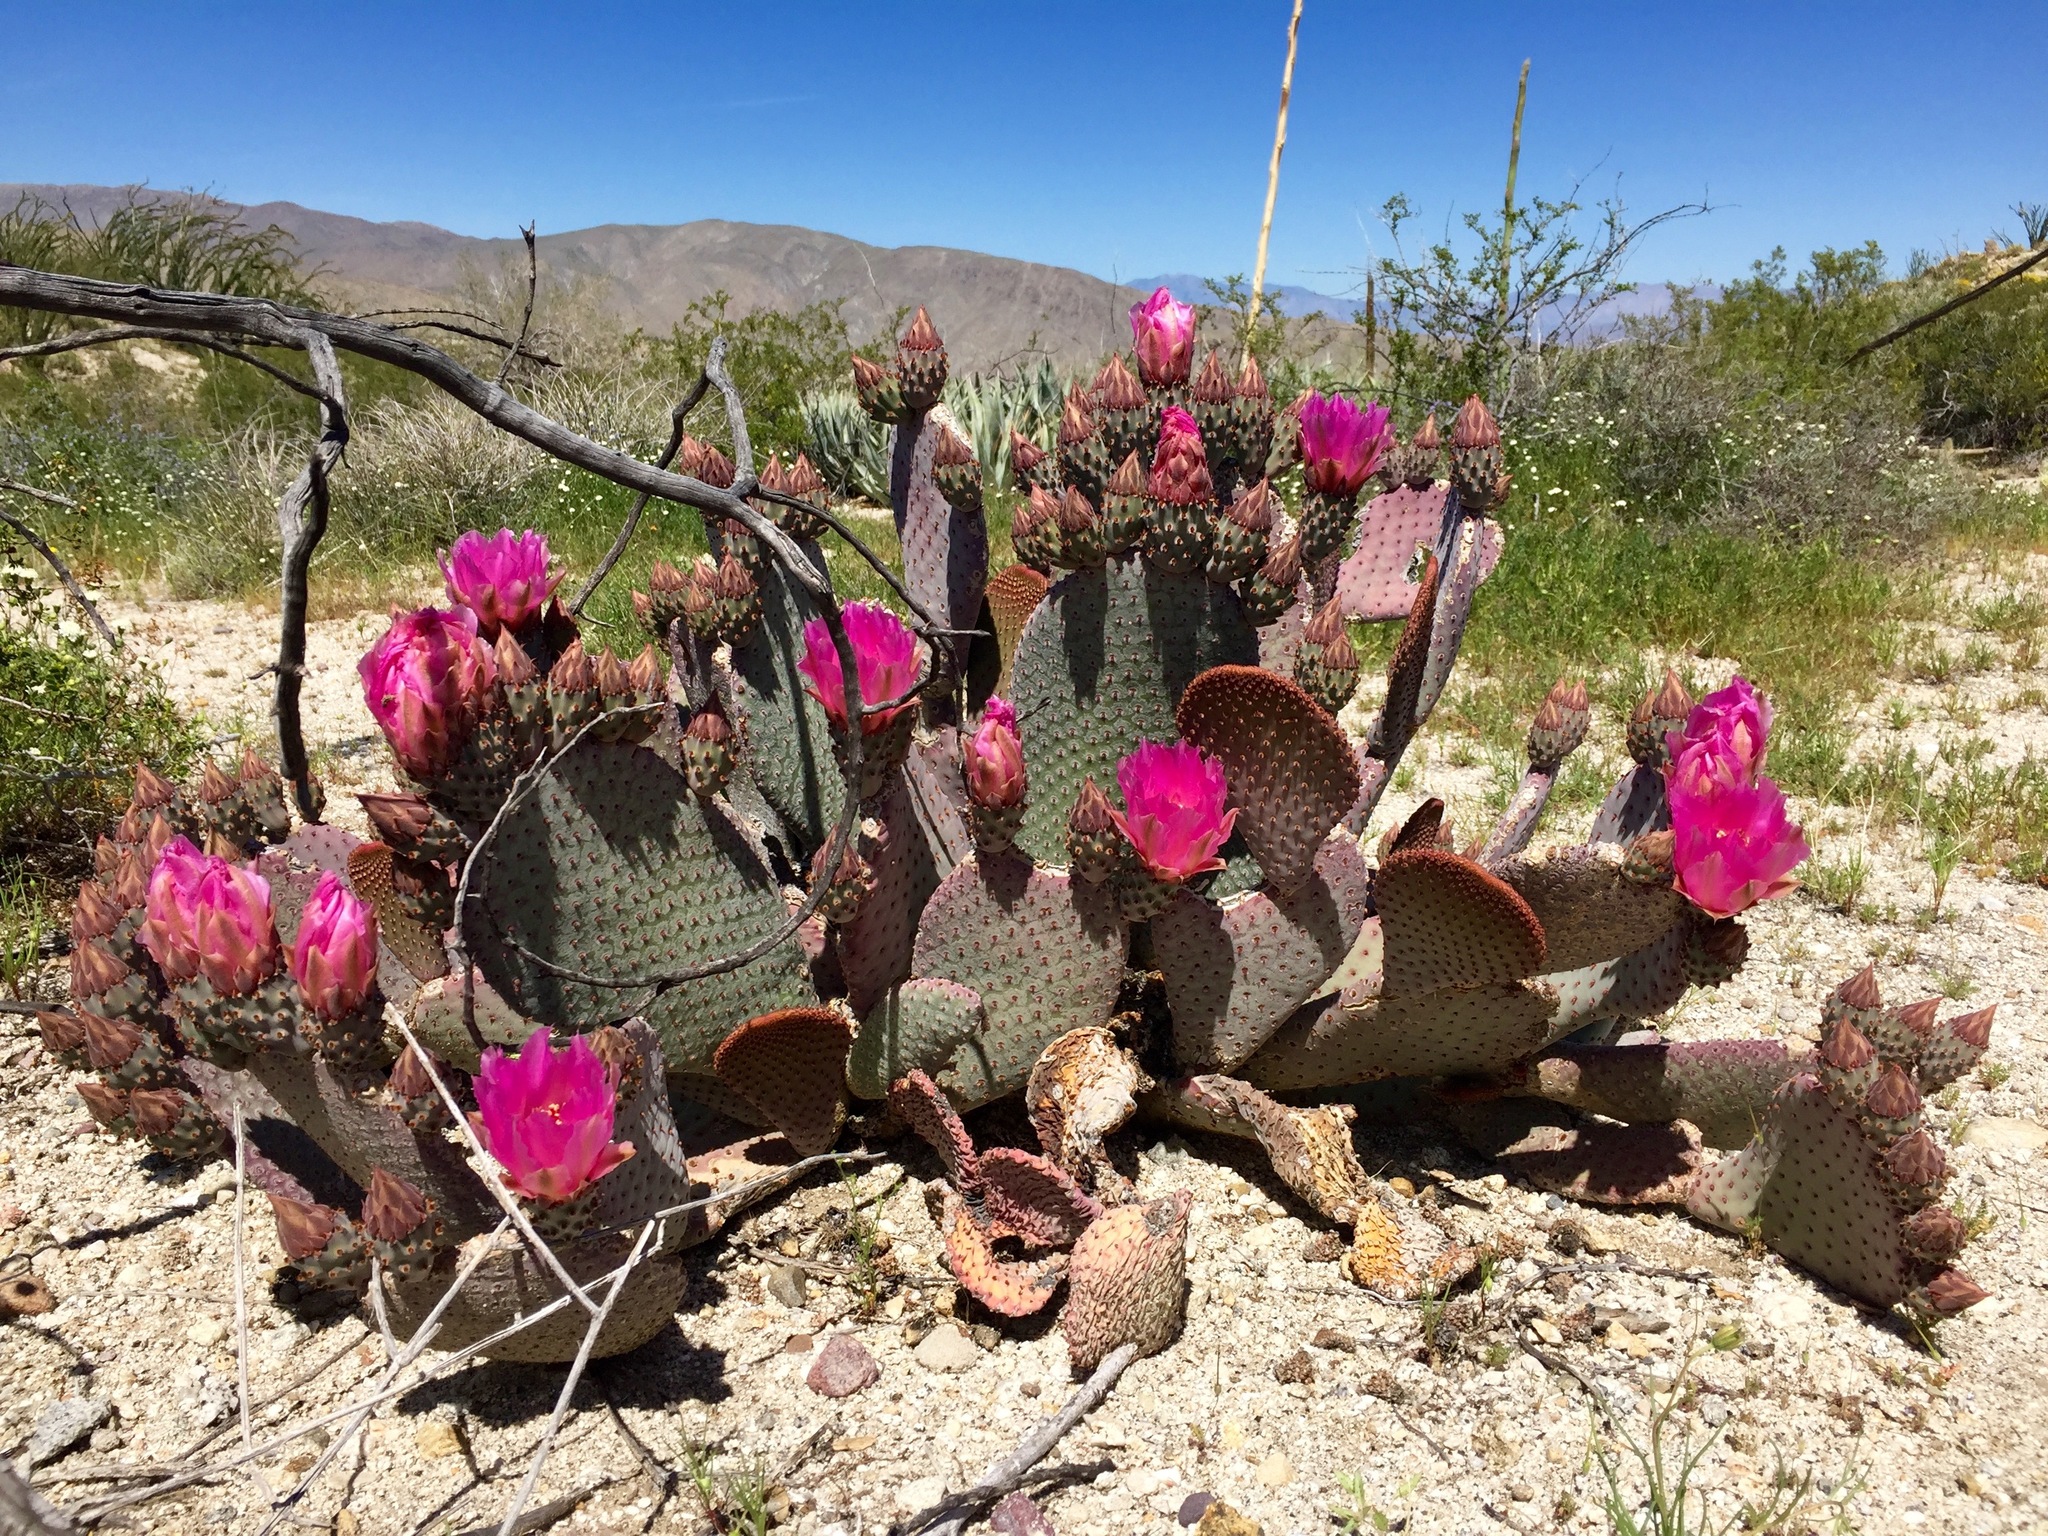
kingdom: Plantae
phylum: Tracheophyta
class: Magnoliopsida
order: Caryophyllales
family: Cactaceae
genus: Opuntia
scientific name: Opuntia basilaris
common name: Beavertail prickly-pear
